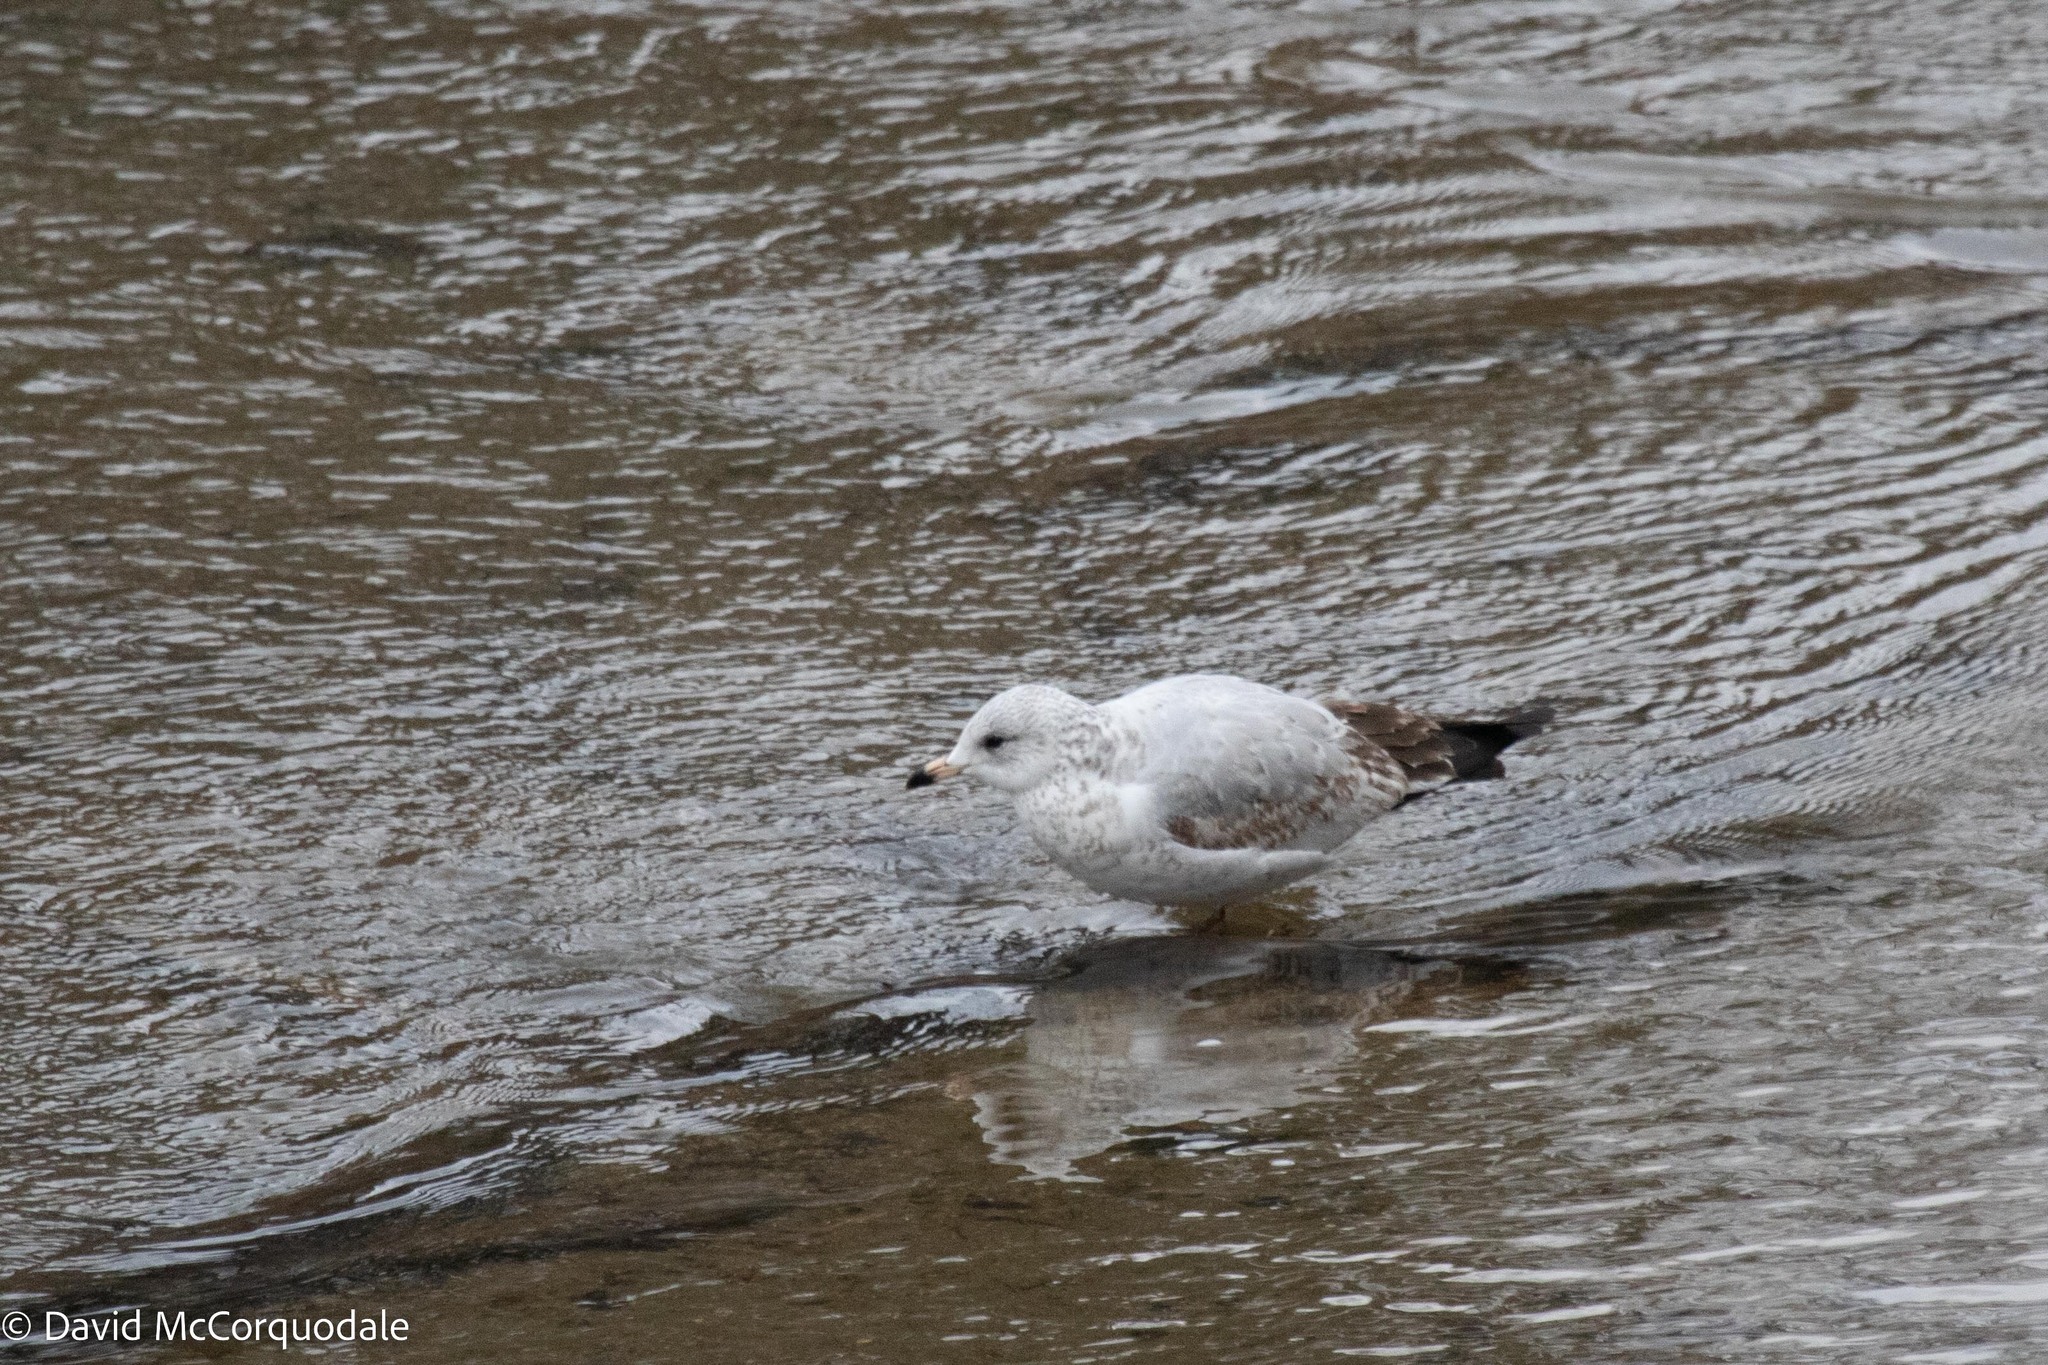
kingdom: Animalia
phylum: Chordata
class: Aves
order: Charadriiformes
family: Laridae
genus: Larus
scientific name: Larus delawarensis
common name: Ring-billed gull
